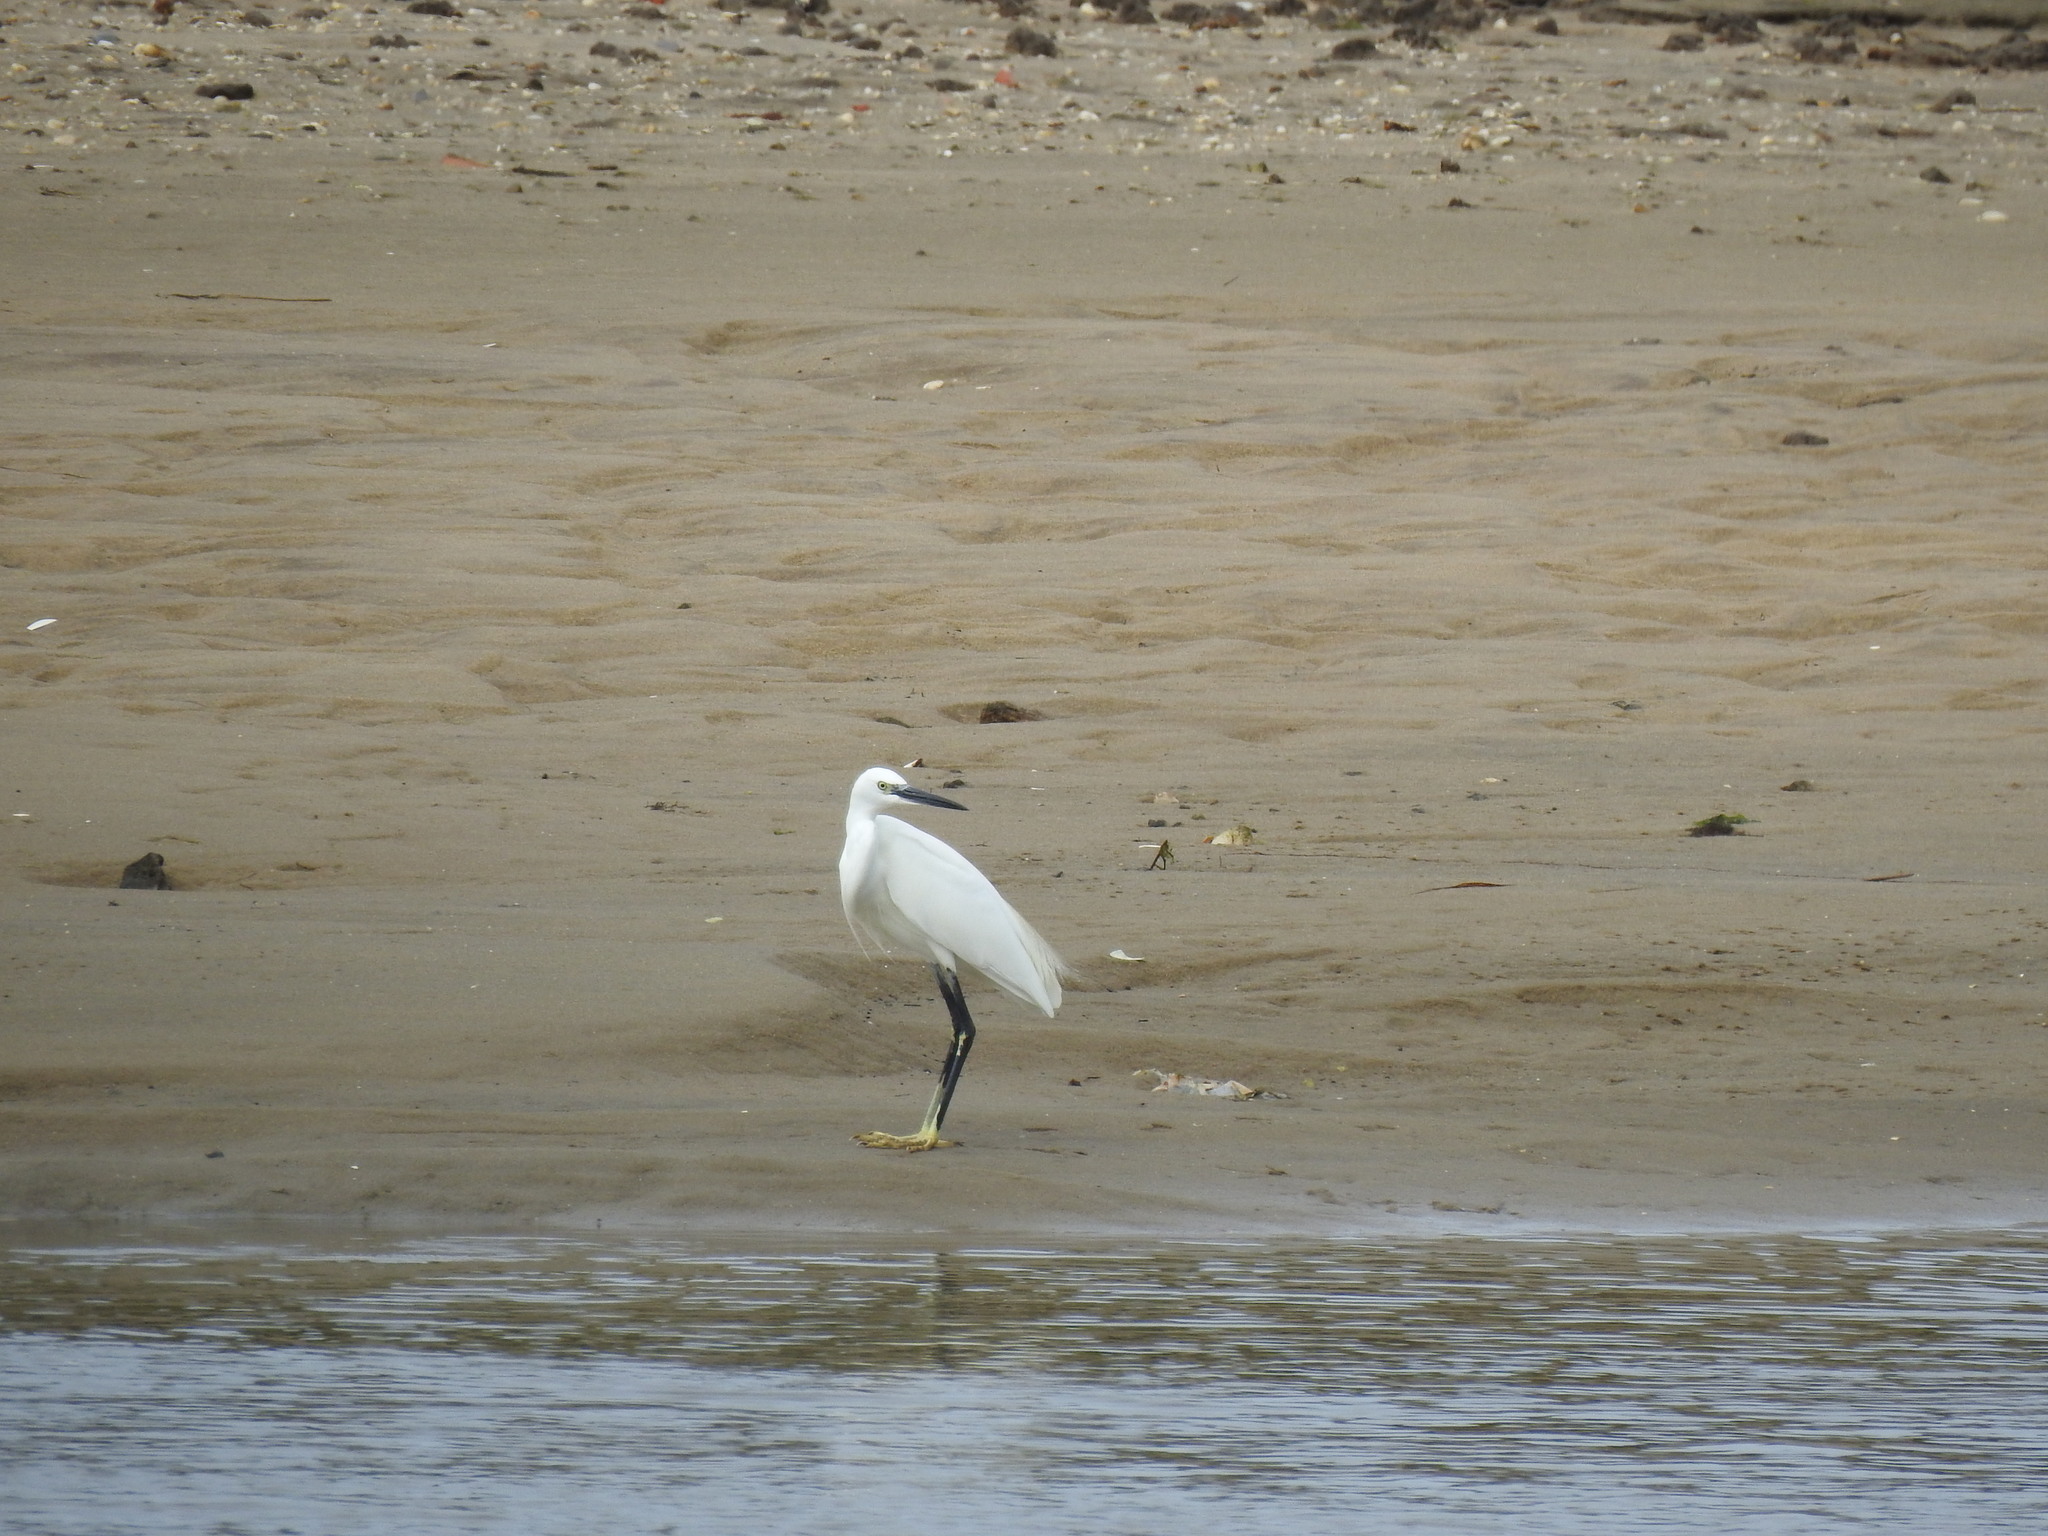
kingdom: Animalia
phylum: Chordata
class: Aves
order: Pelecaniformes
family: Ardeidae
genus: Egretta
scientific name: Egretta garzetta
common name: Little egret
